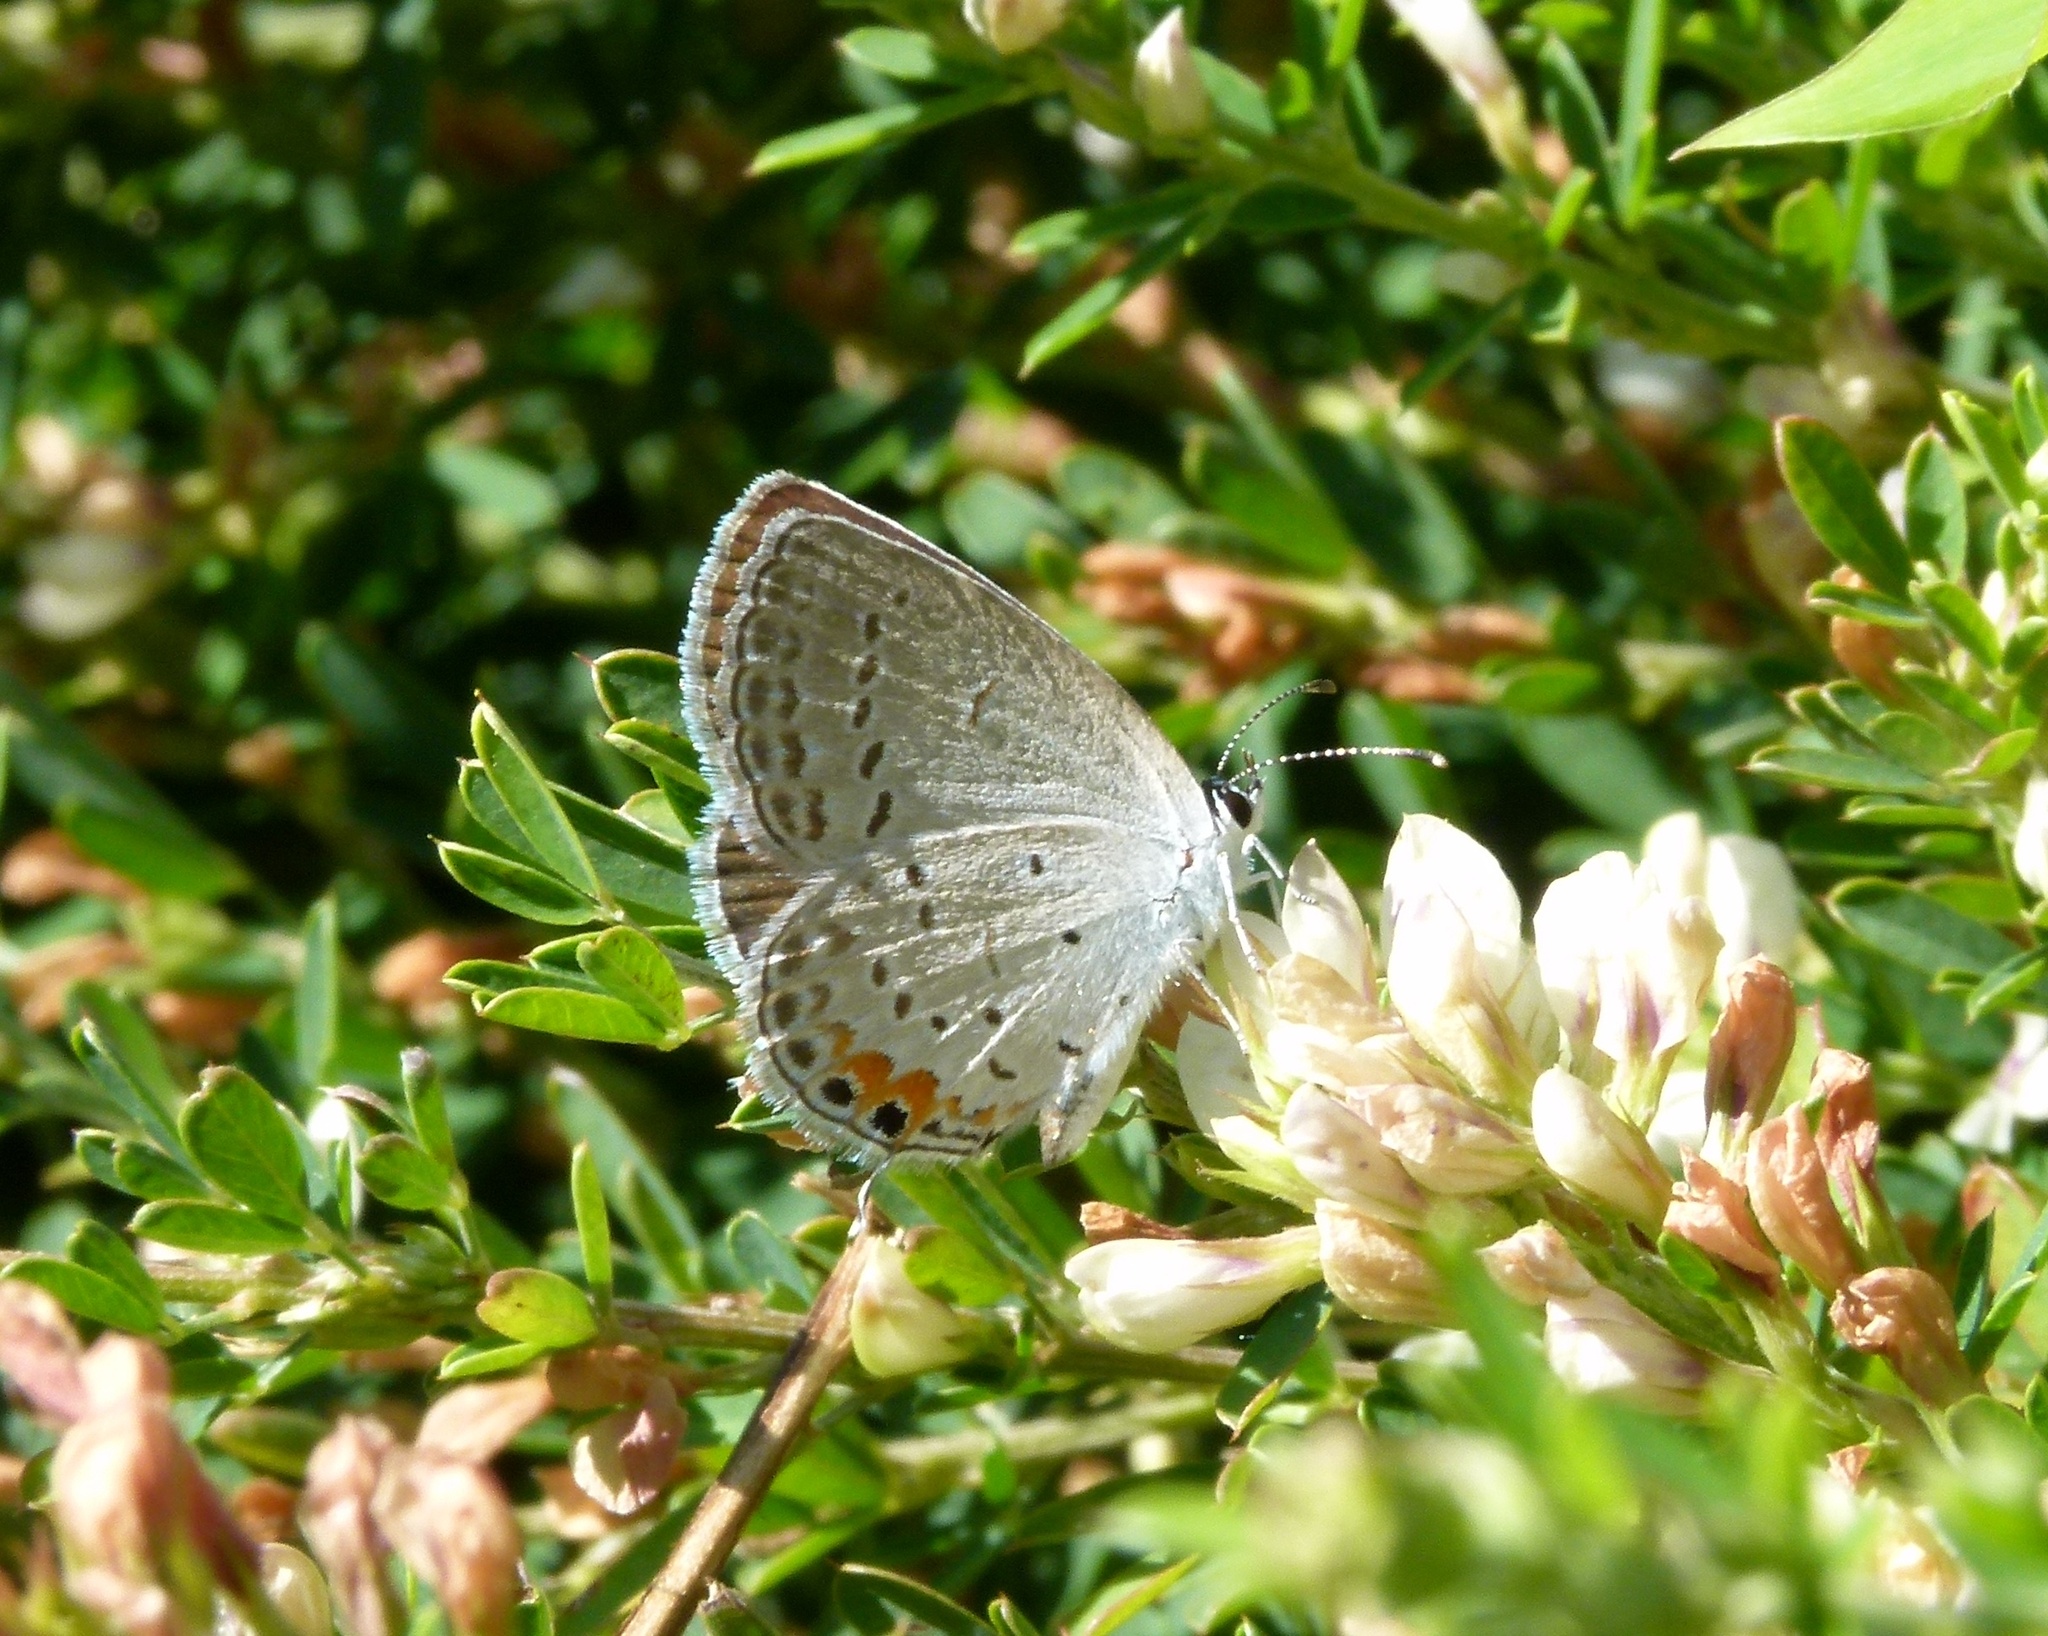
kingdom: Animalia
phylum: Arthropoda
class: Insecta
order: Lepidoptera
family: Lycaenidae
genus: Elkalyce
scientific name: Elkalyce comyntas
